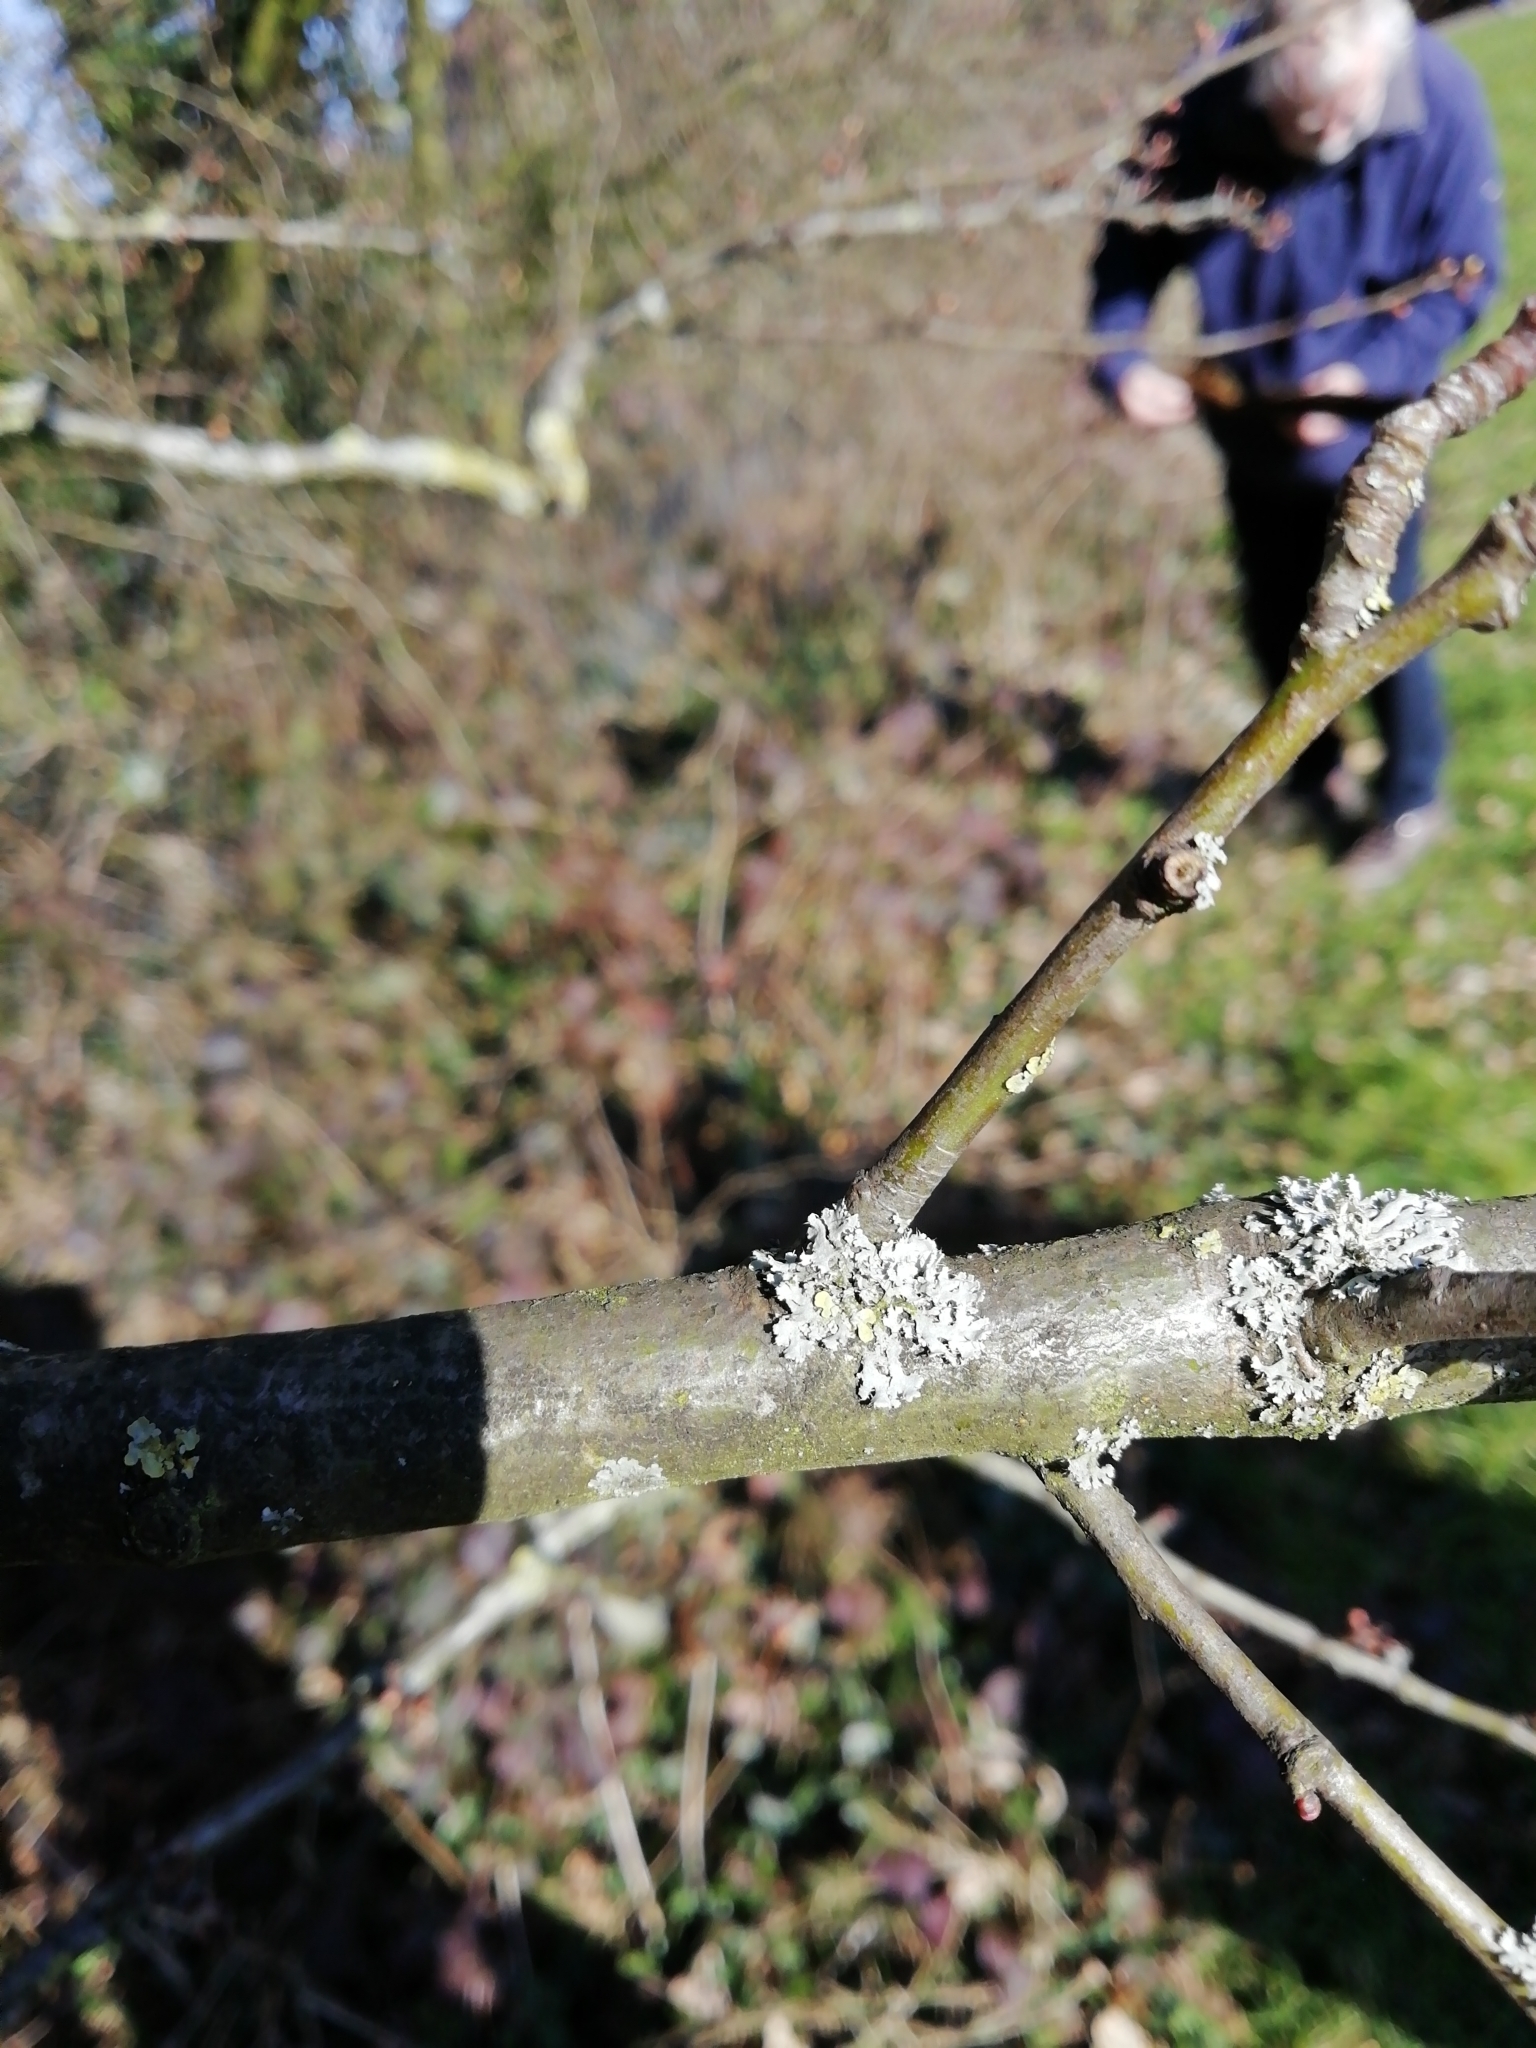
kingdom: Fungi
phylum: Ascomycota
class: Lecanoromycetes
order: Caliciales
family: Physciaceae
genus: Physcia
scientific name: Physcia
